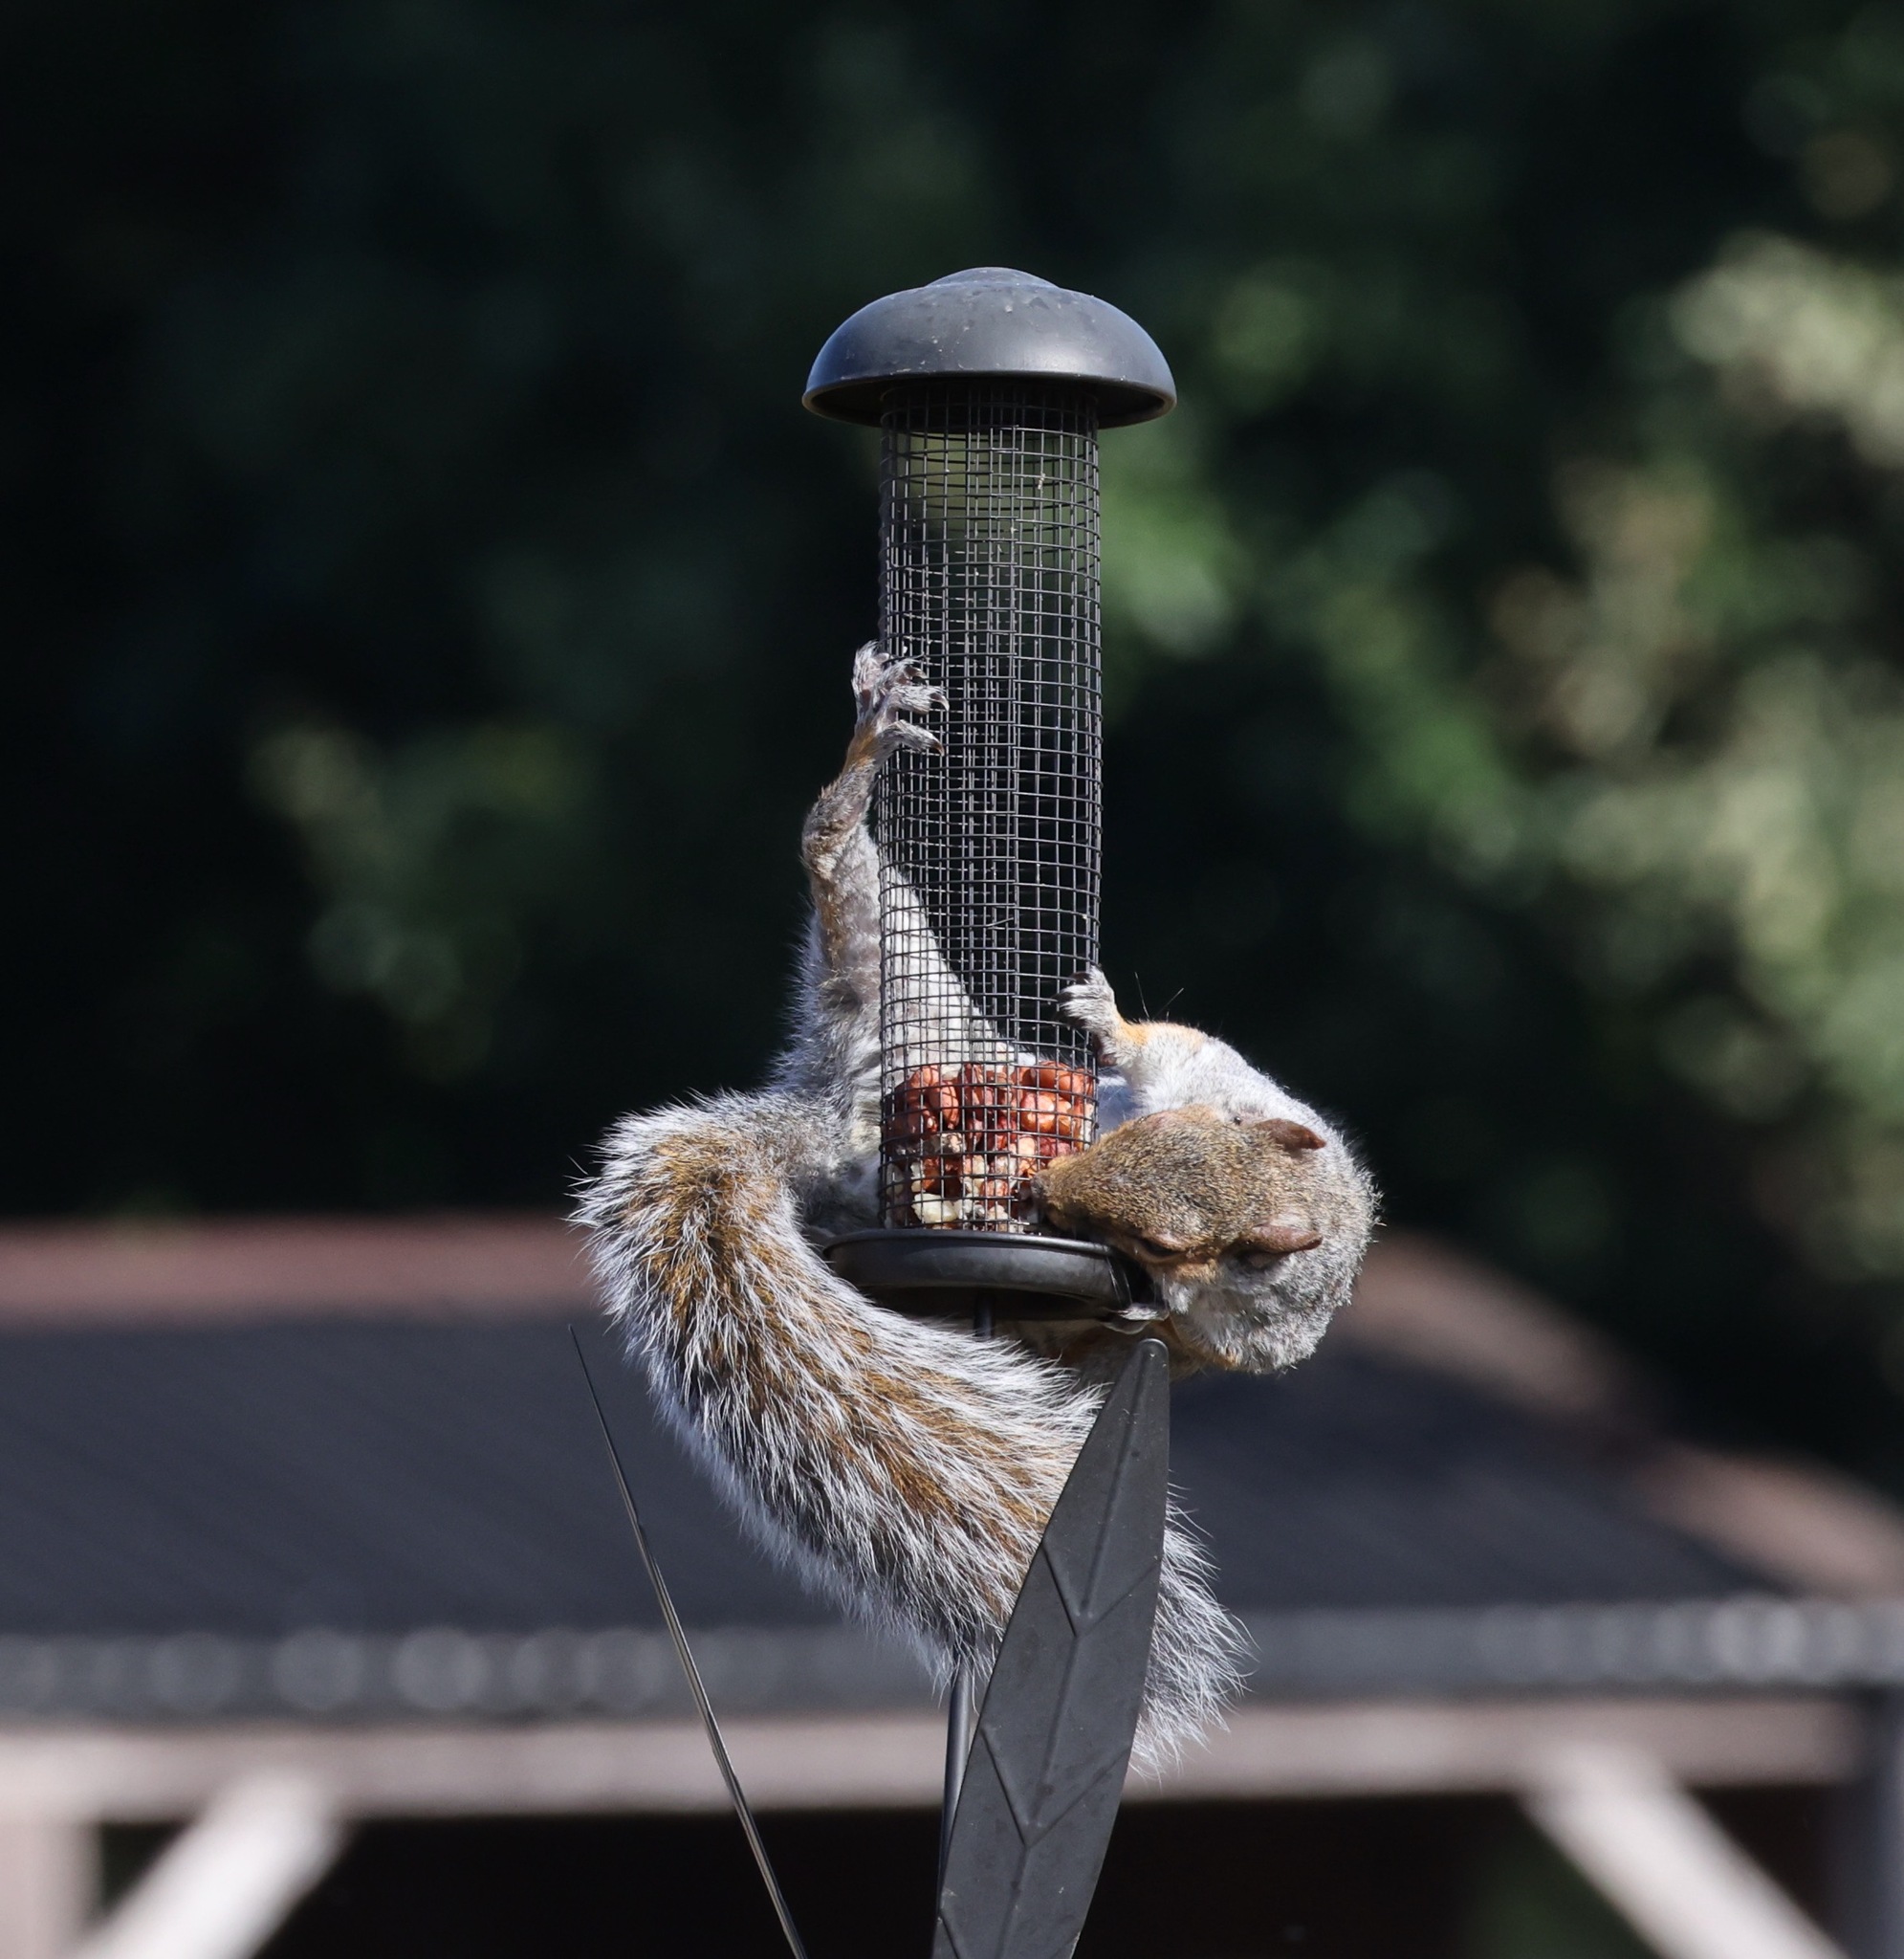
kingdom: Animalia
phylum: Chordata
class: Mammalia
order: Rodentia
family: Sciuridae
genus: Sciurus
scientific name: Sciurus carolinensis
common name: Eastern gray squirrel
